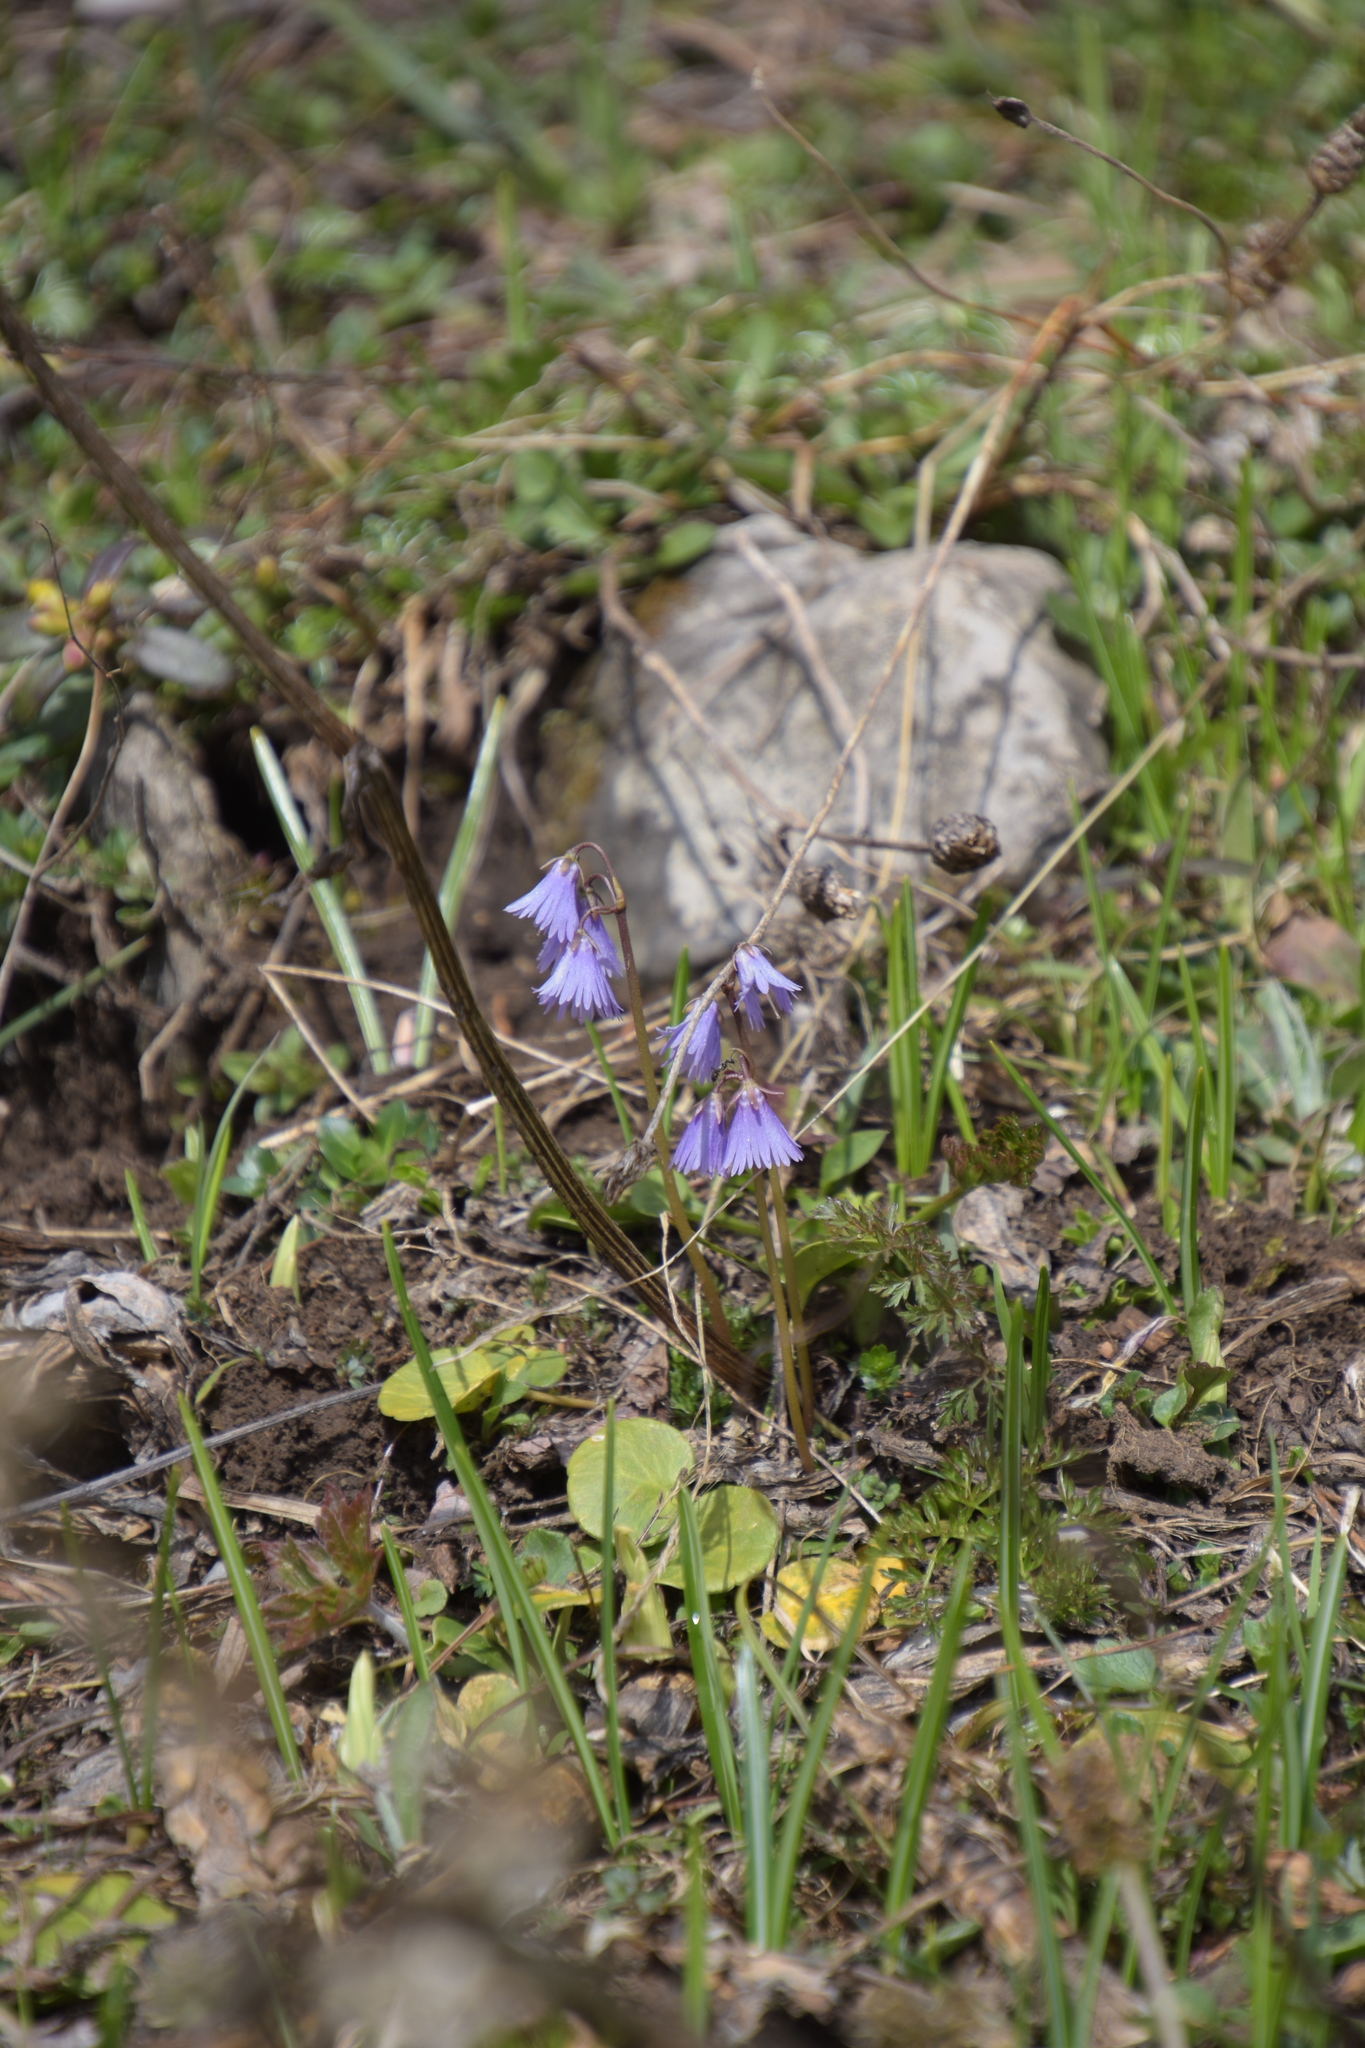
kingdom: Plantae
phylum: Tracheophyta
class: Magnoliopsida
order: Ericales
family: Primulaceae
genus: Soldanella
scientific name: Soldanella alpina
